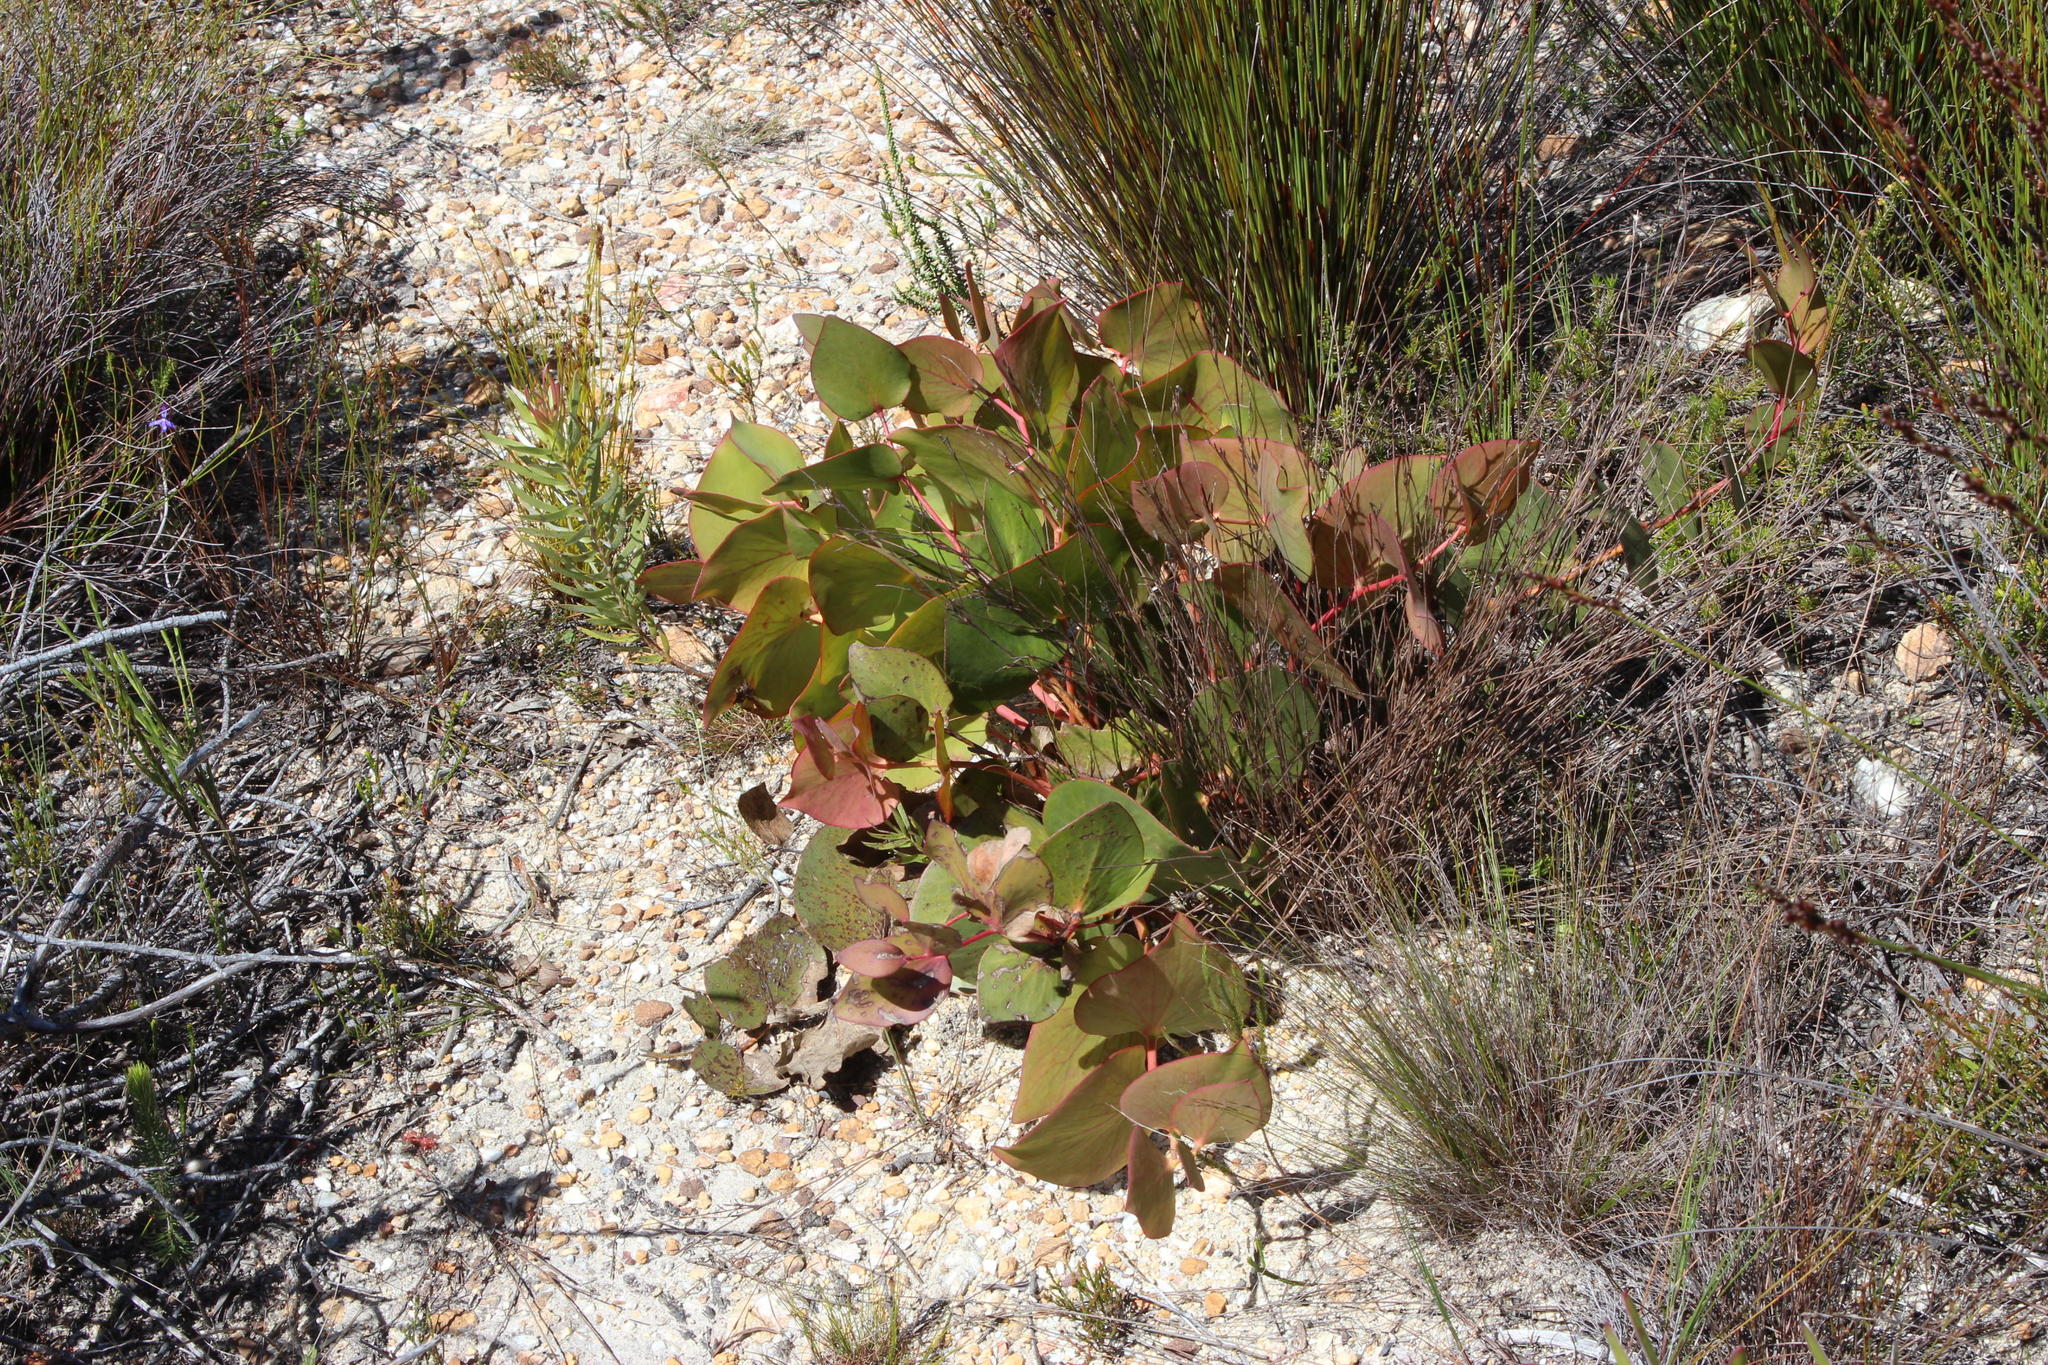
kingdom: Plantae
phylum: Tracheophyta
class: Magnoliopsida
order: Proteales
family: Proteaceae
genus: Protea
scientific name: Protea cordata
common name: Heart-leaf sugarbush
